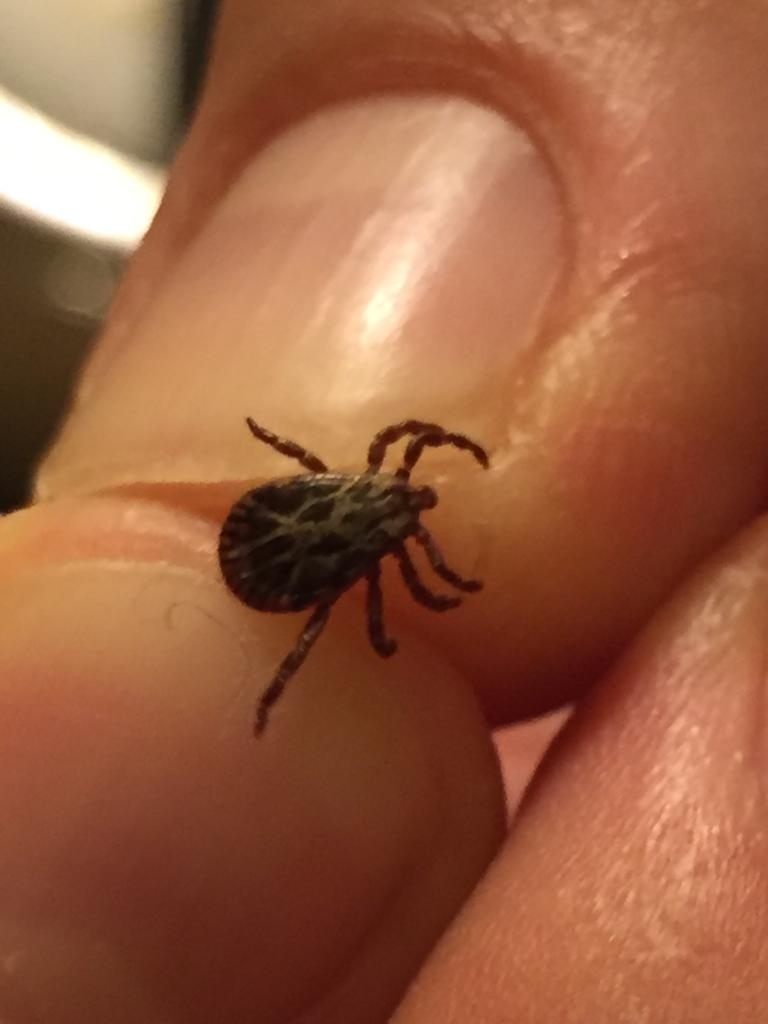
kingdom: Animalia
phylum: Arthropoda
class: Arachnida
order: Ixodida
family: Ixodidae
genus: Dermacentor
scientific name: Dermacentor marginatus
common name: Ornate sheep tick
